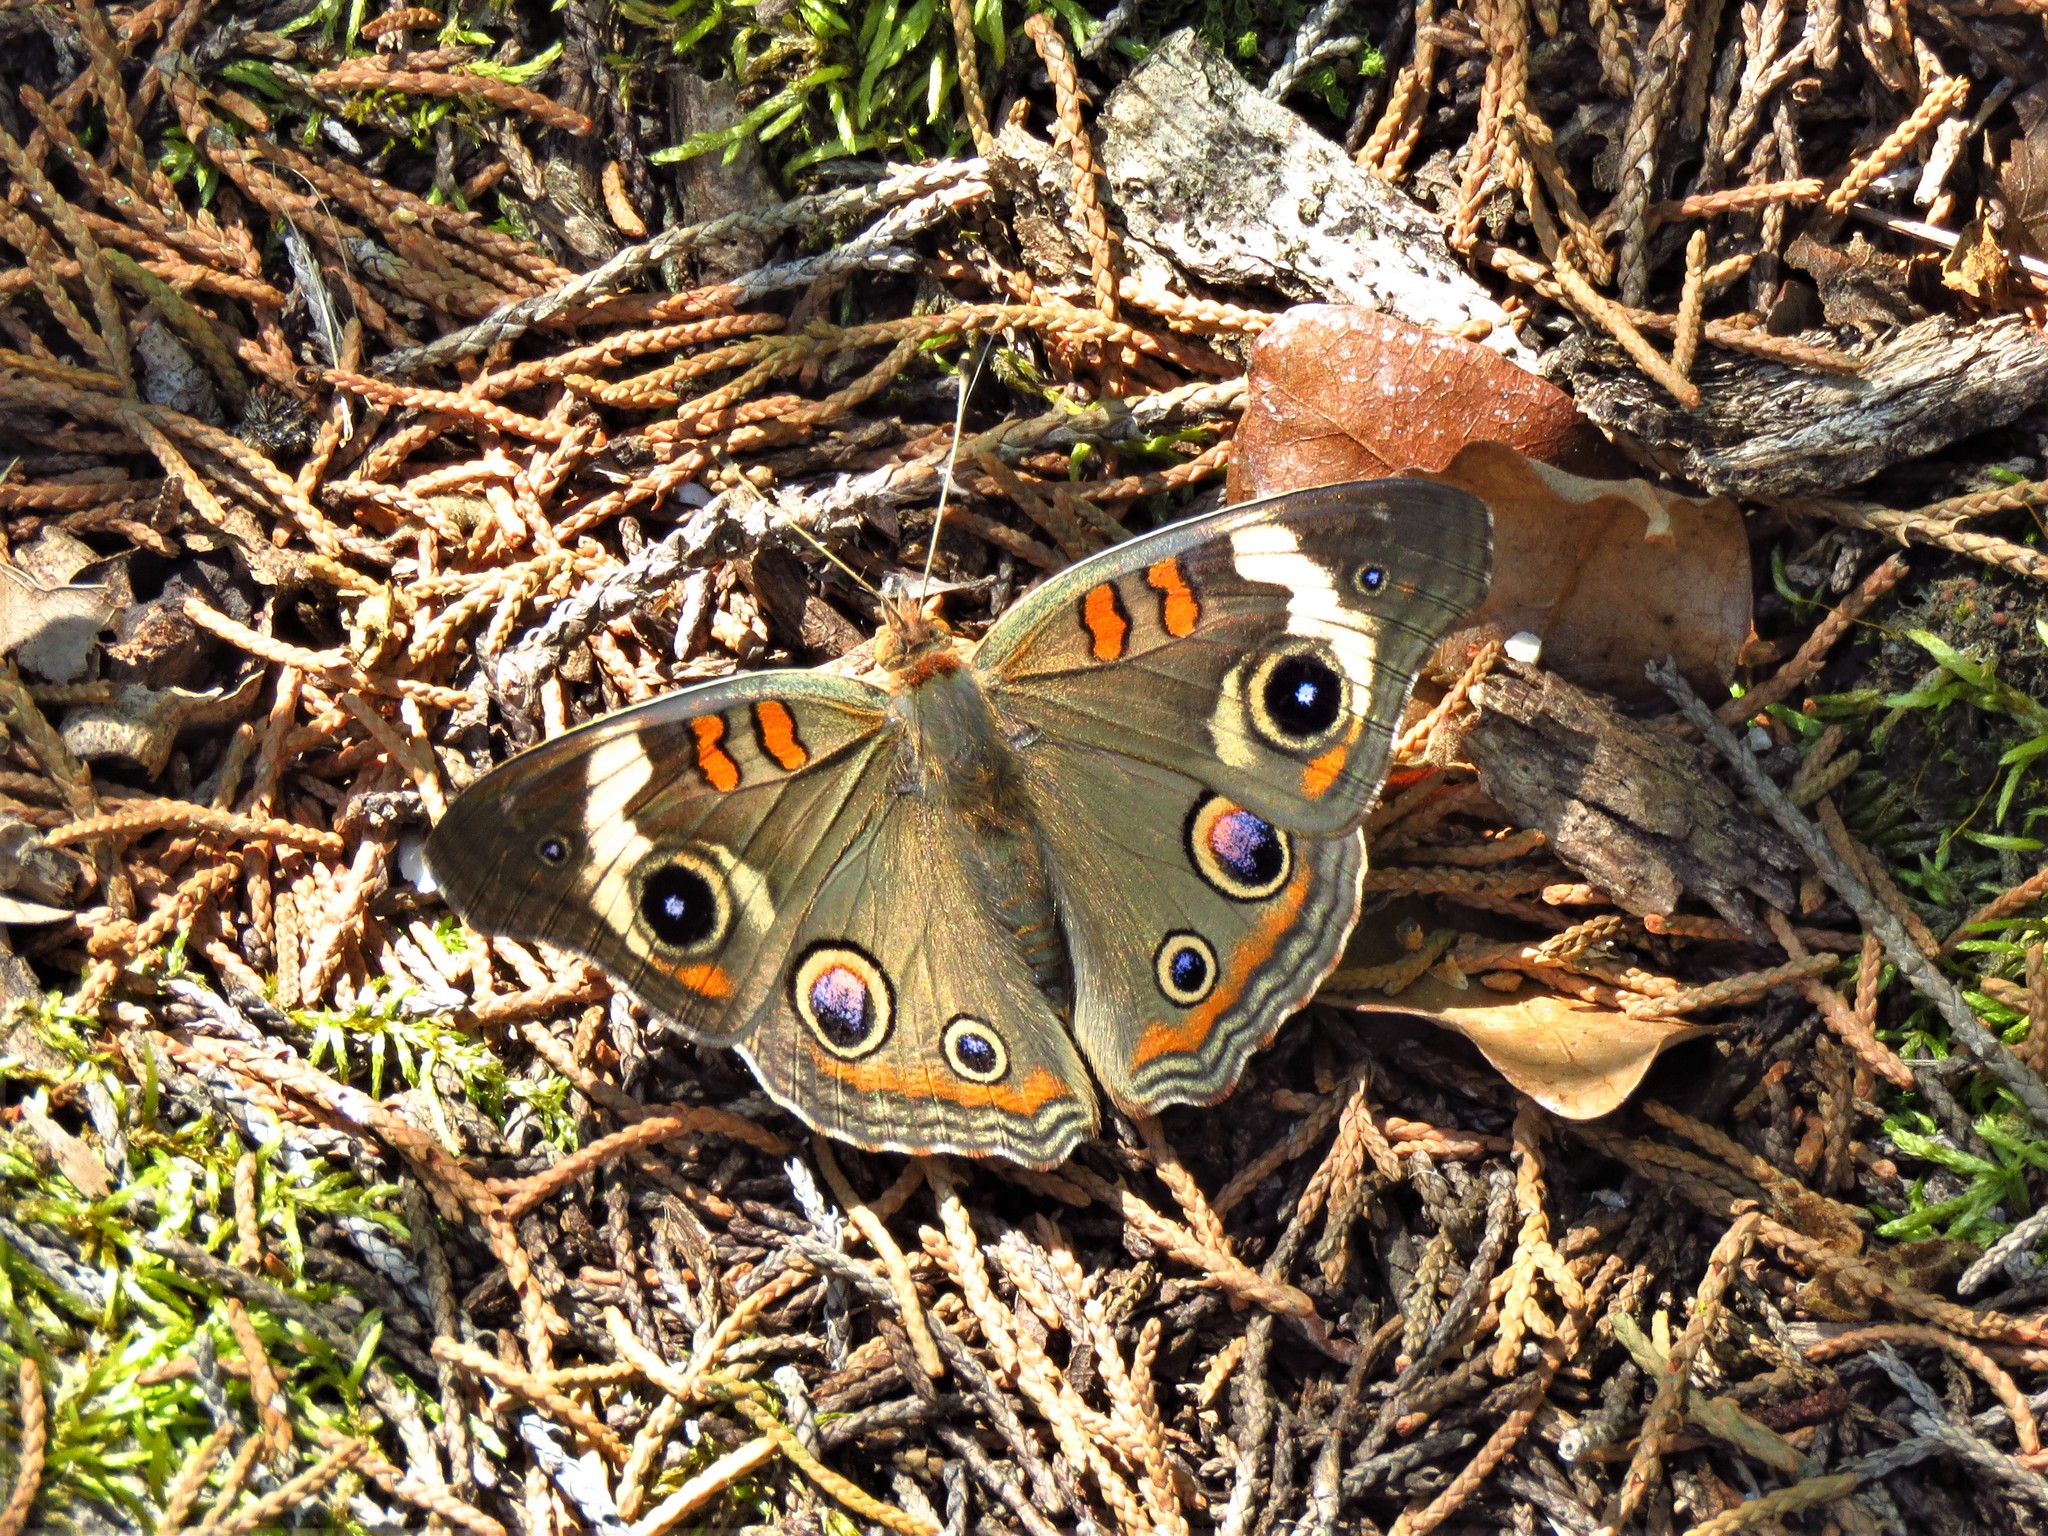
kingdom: Animalia
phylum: Arthropoda
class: Insecta
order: Lepidoptera
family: Nymphalidae
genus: Junonia
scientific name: Junonia coenia
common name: Common buckeye
